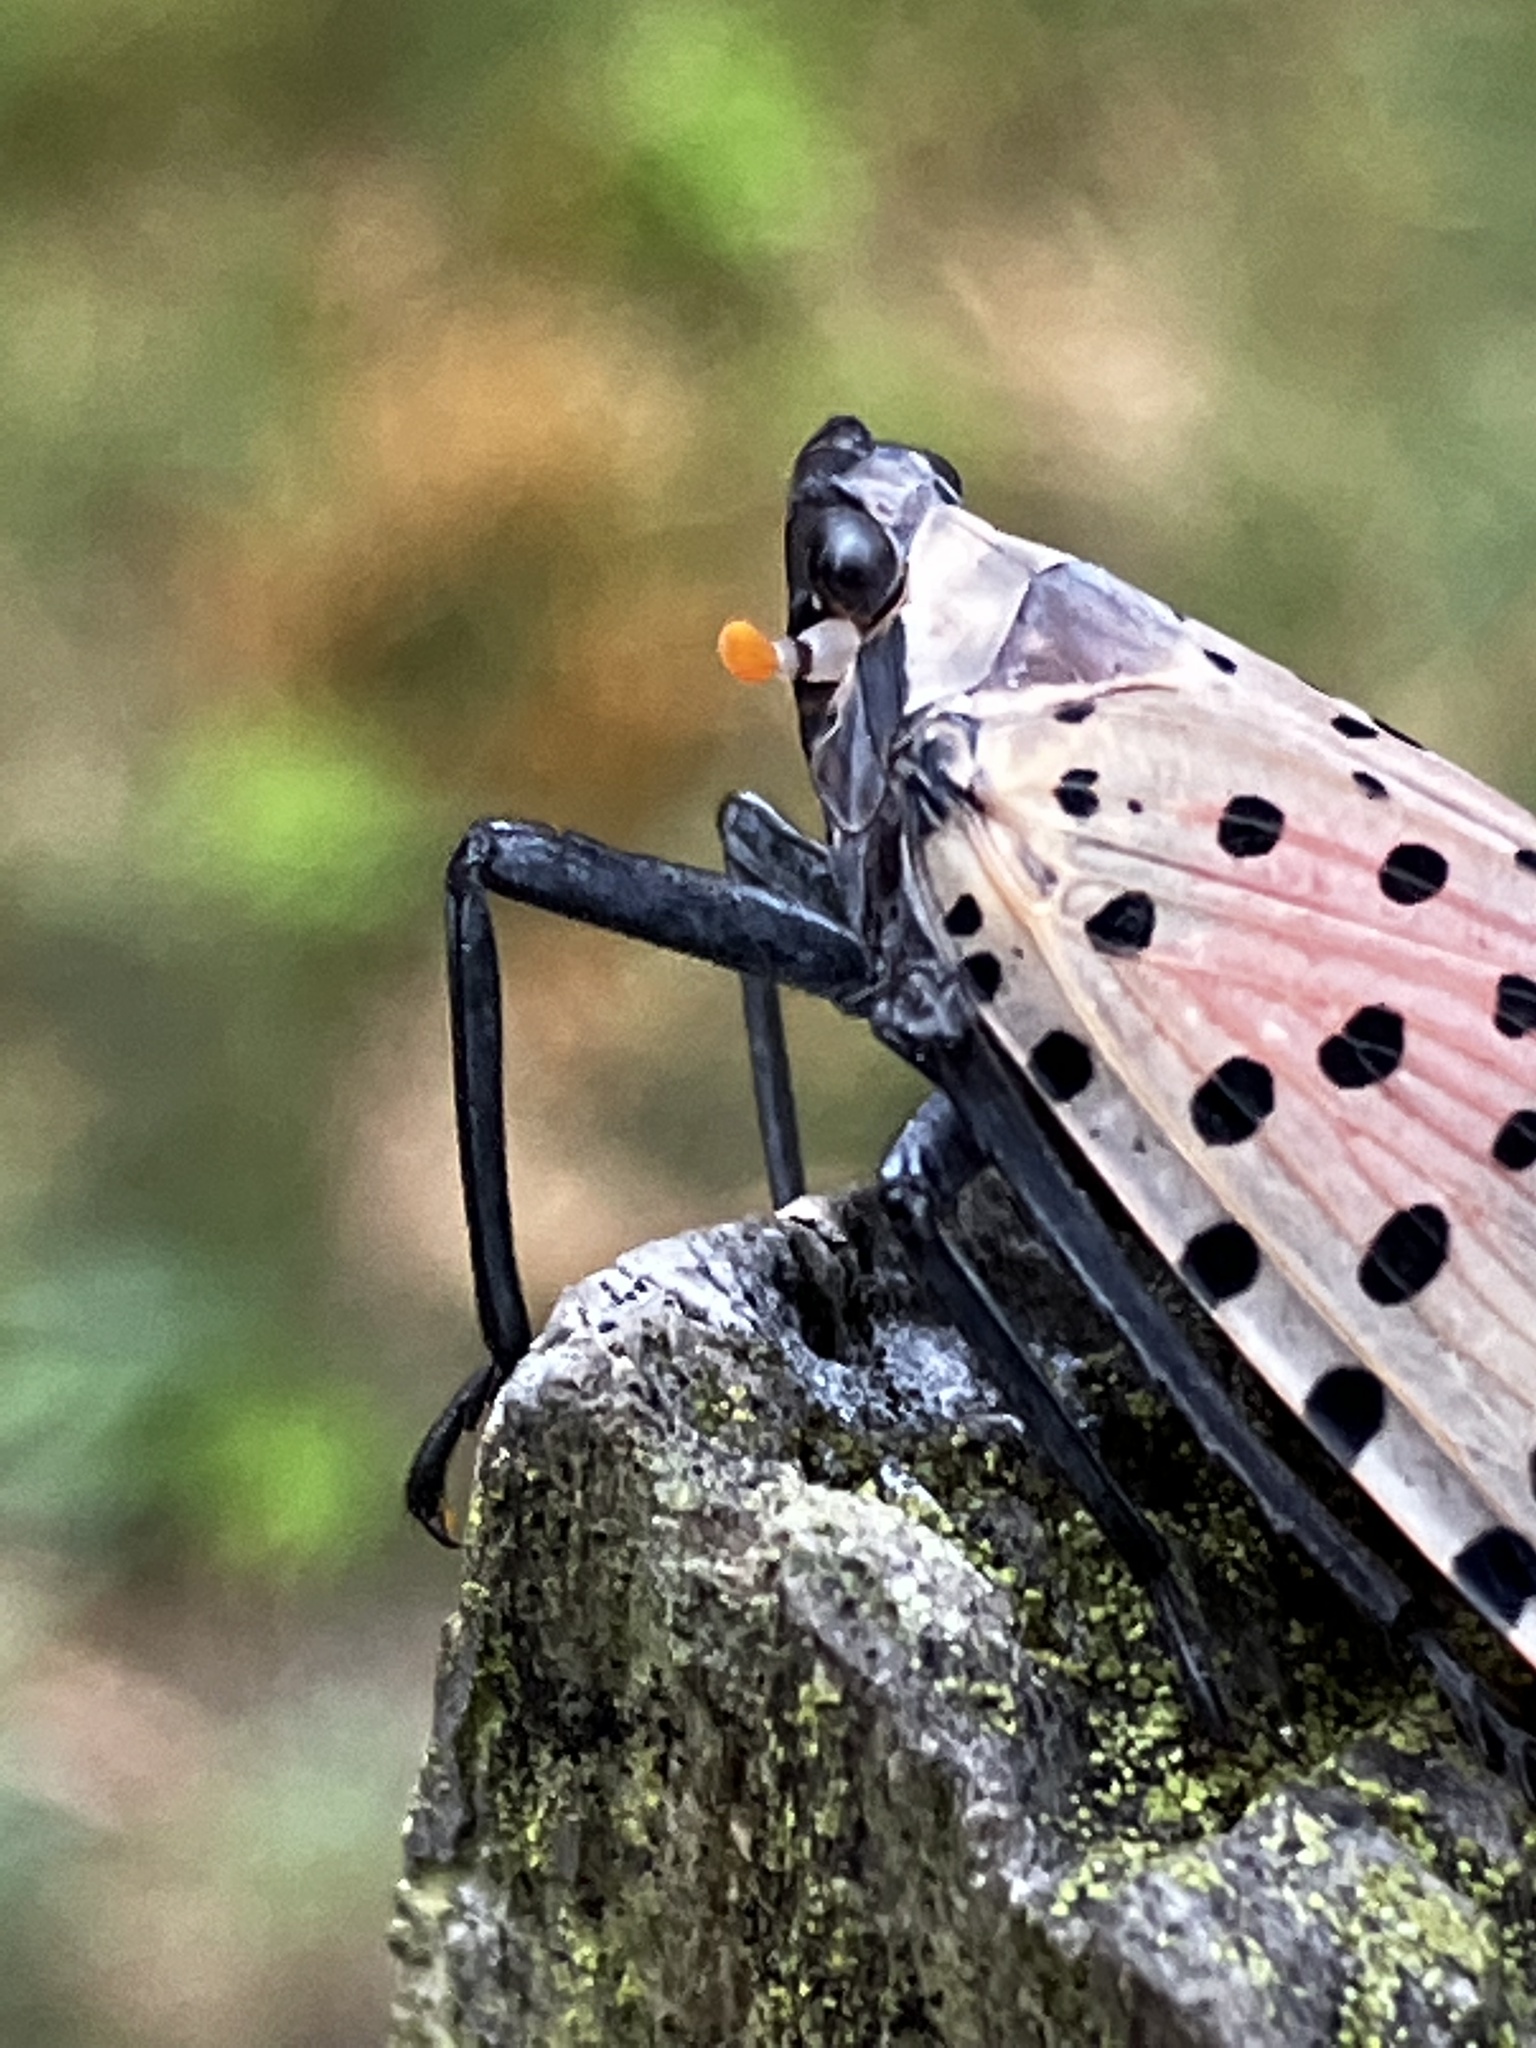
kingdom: Animalia
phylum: Arthropoda
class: Insecta
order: Hemiptera
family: Fulgoridae
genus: Lycorma
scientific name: Lycorma delicatula
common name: Spotted lanternfly
